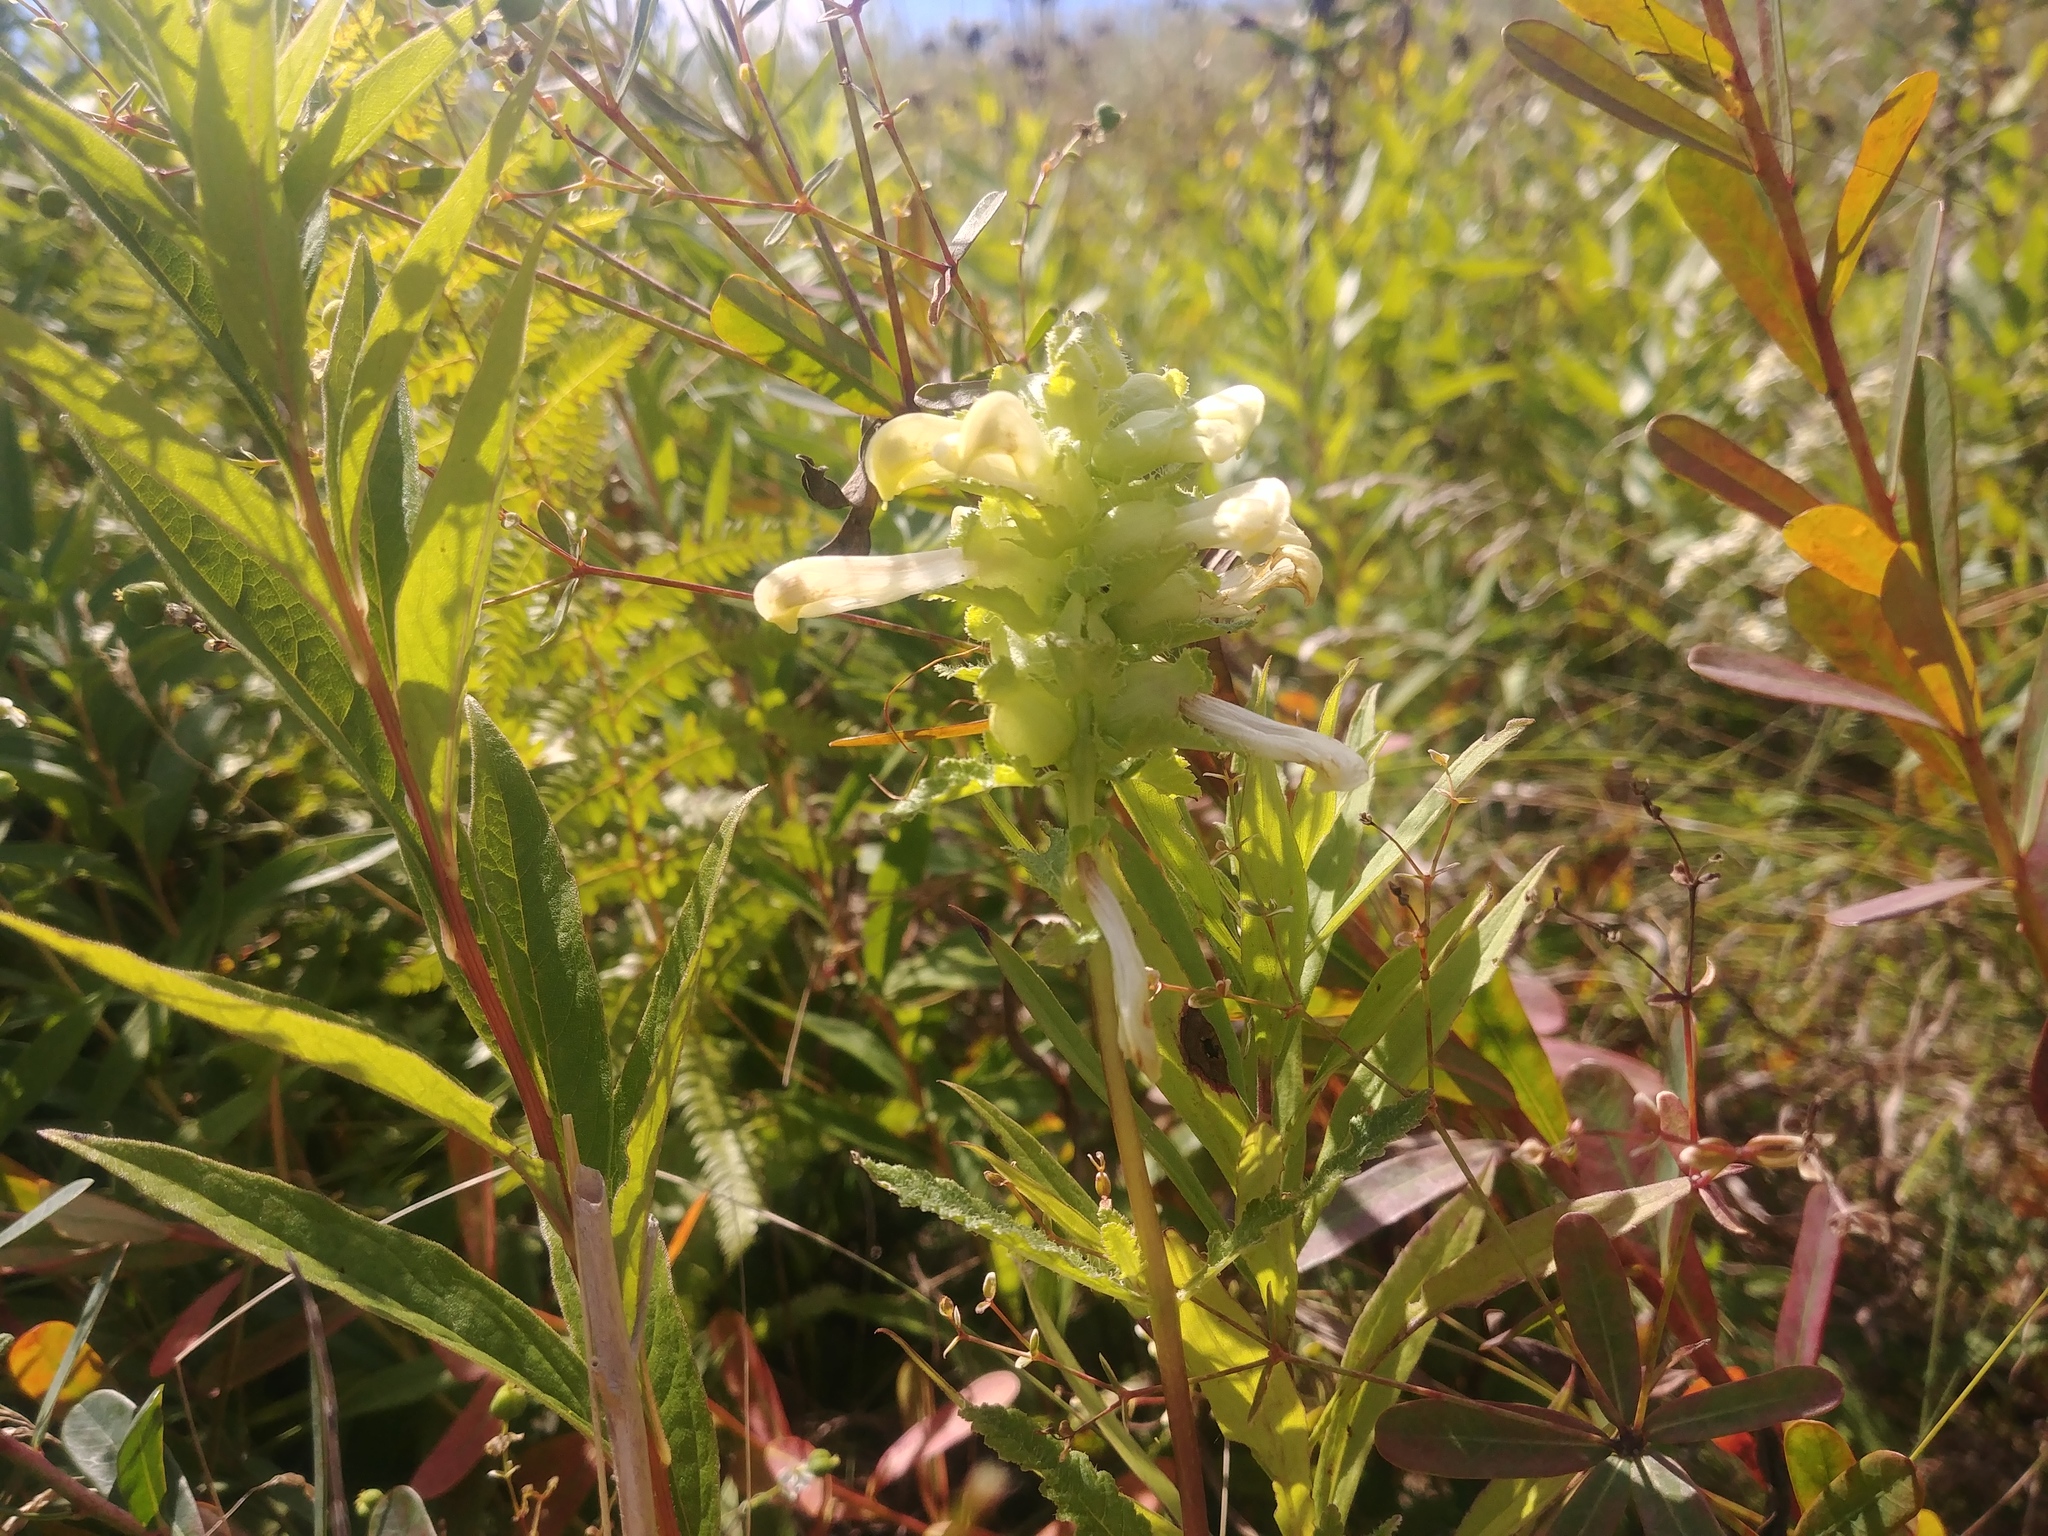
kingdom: Plantae
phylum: Tracheophyta
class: Magnoliopsida
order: Lamiales
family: Orobanchaceae
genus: Pedicularis
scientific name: Pedicularis lanceolata
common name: Swamp lousewort
